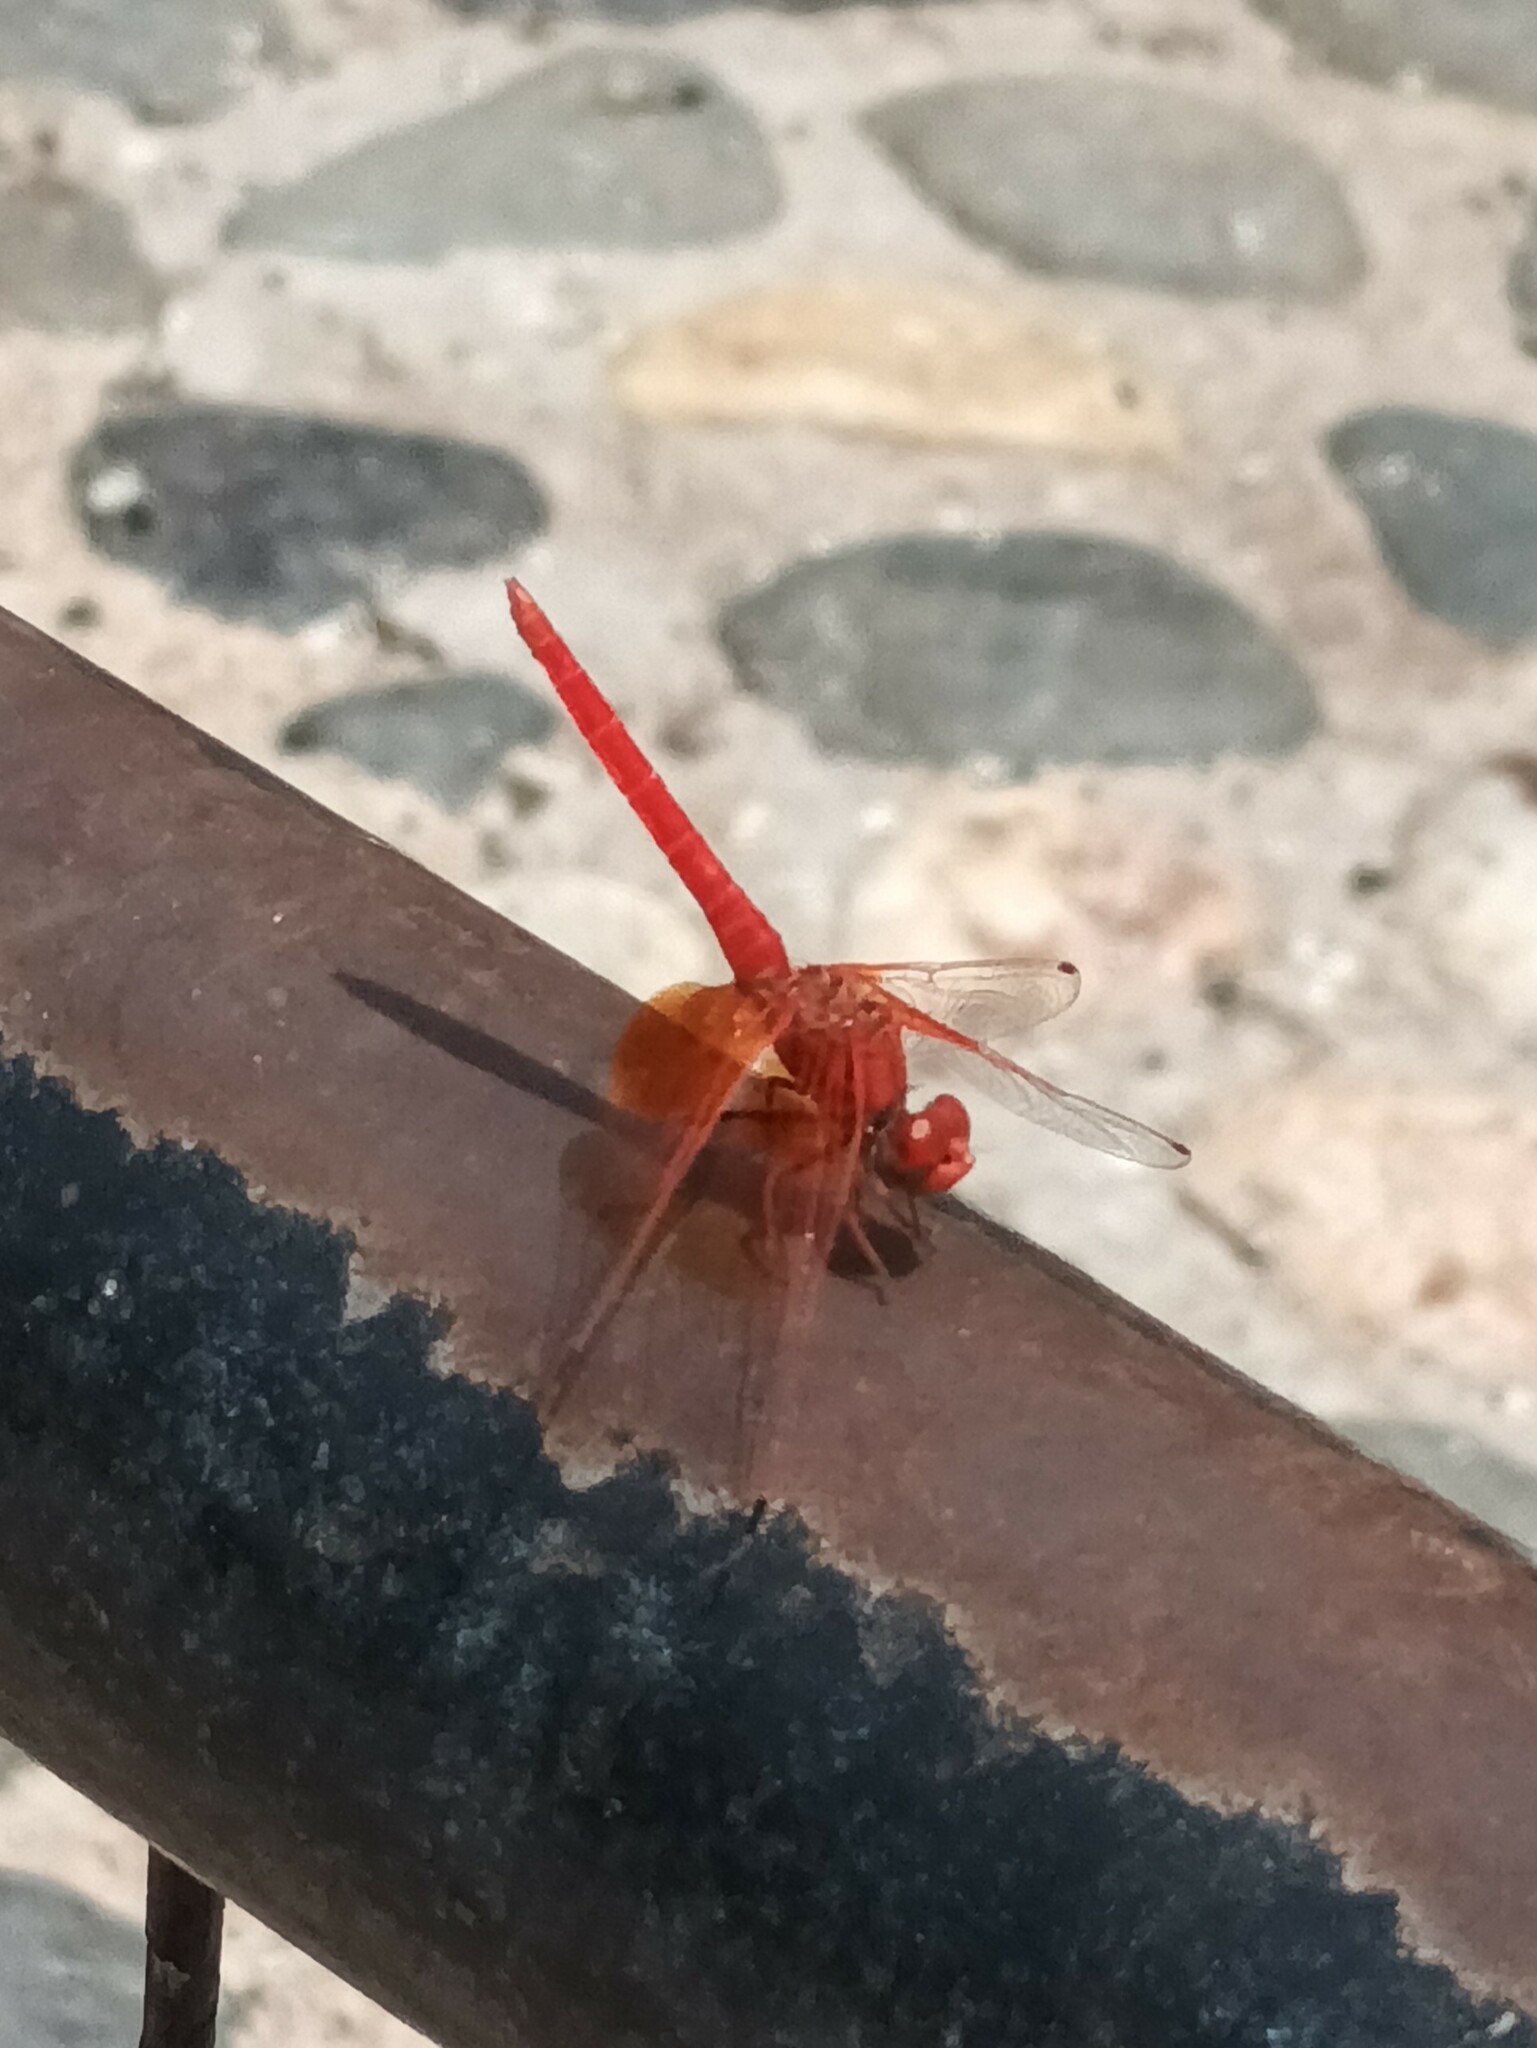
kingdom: Animalia
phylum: Arthropoda
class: Insecta
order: Odonata
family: Libellulidae
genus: Trithemis
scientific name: Trithemis kirbyi
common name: Kirby's dropwing
